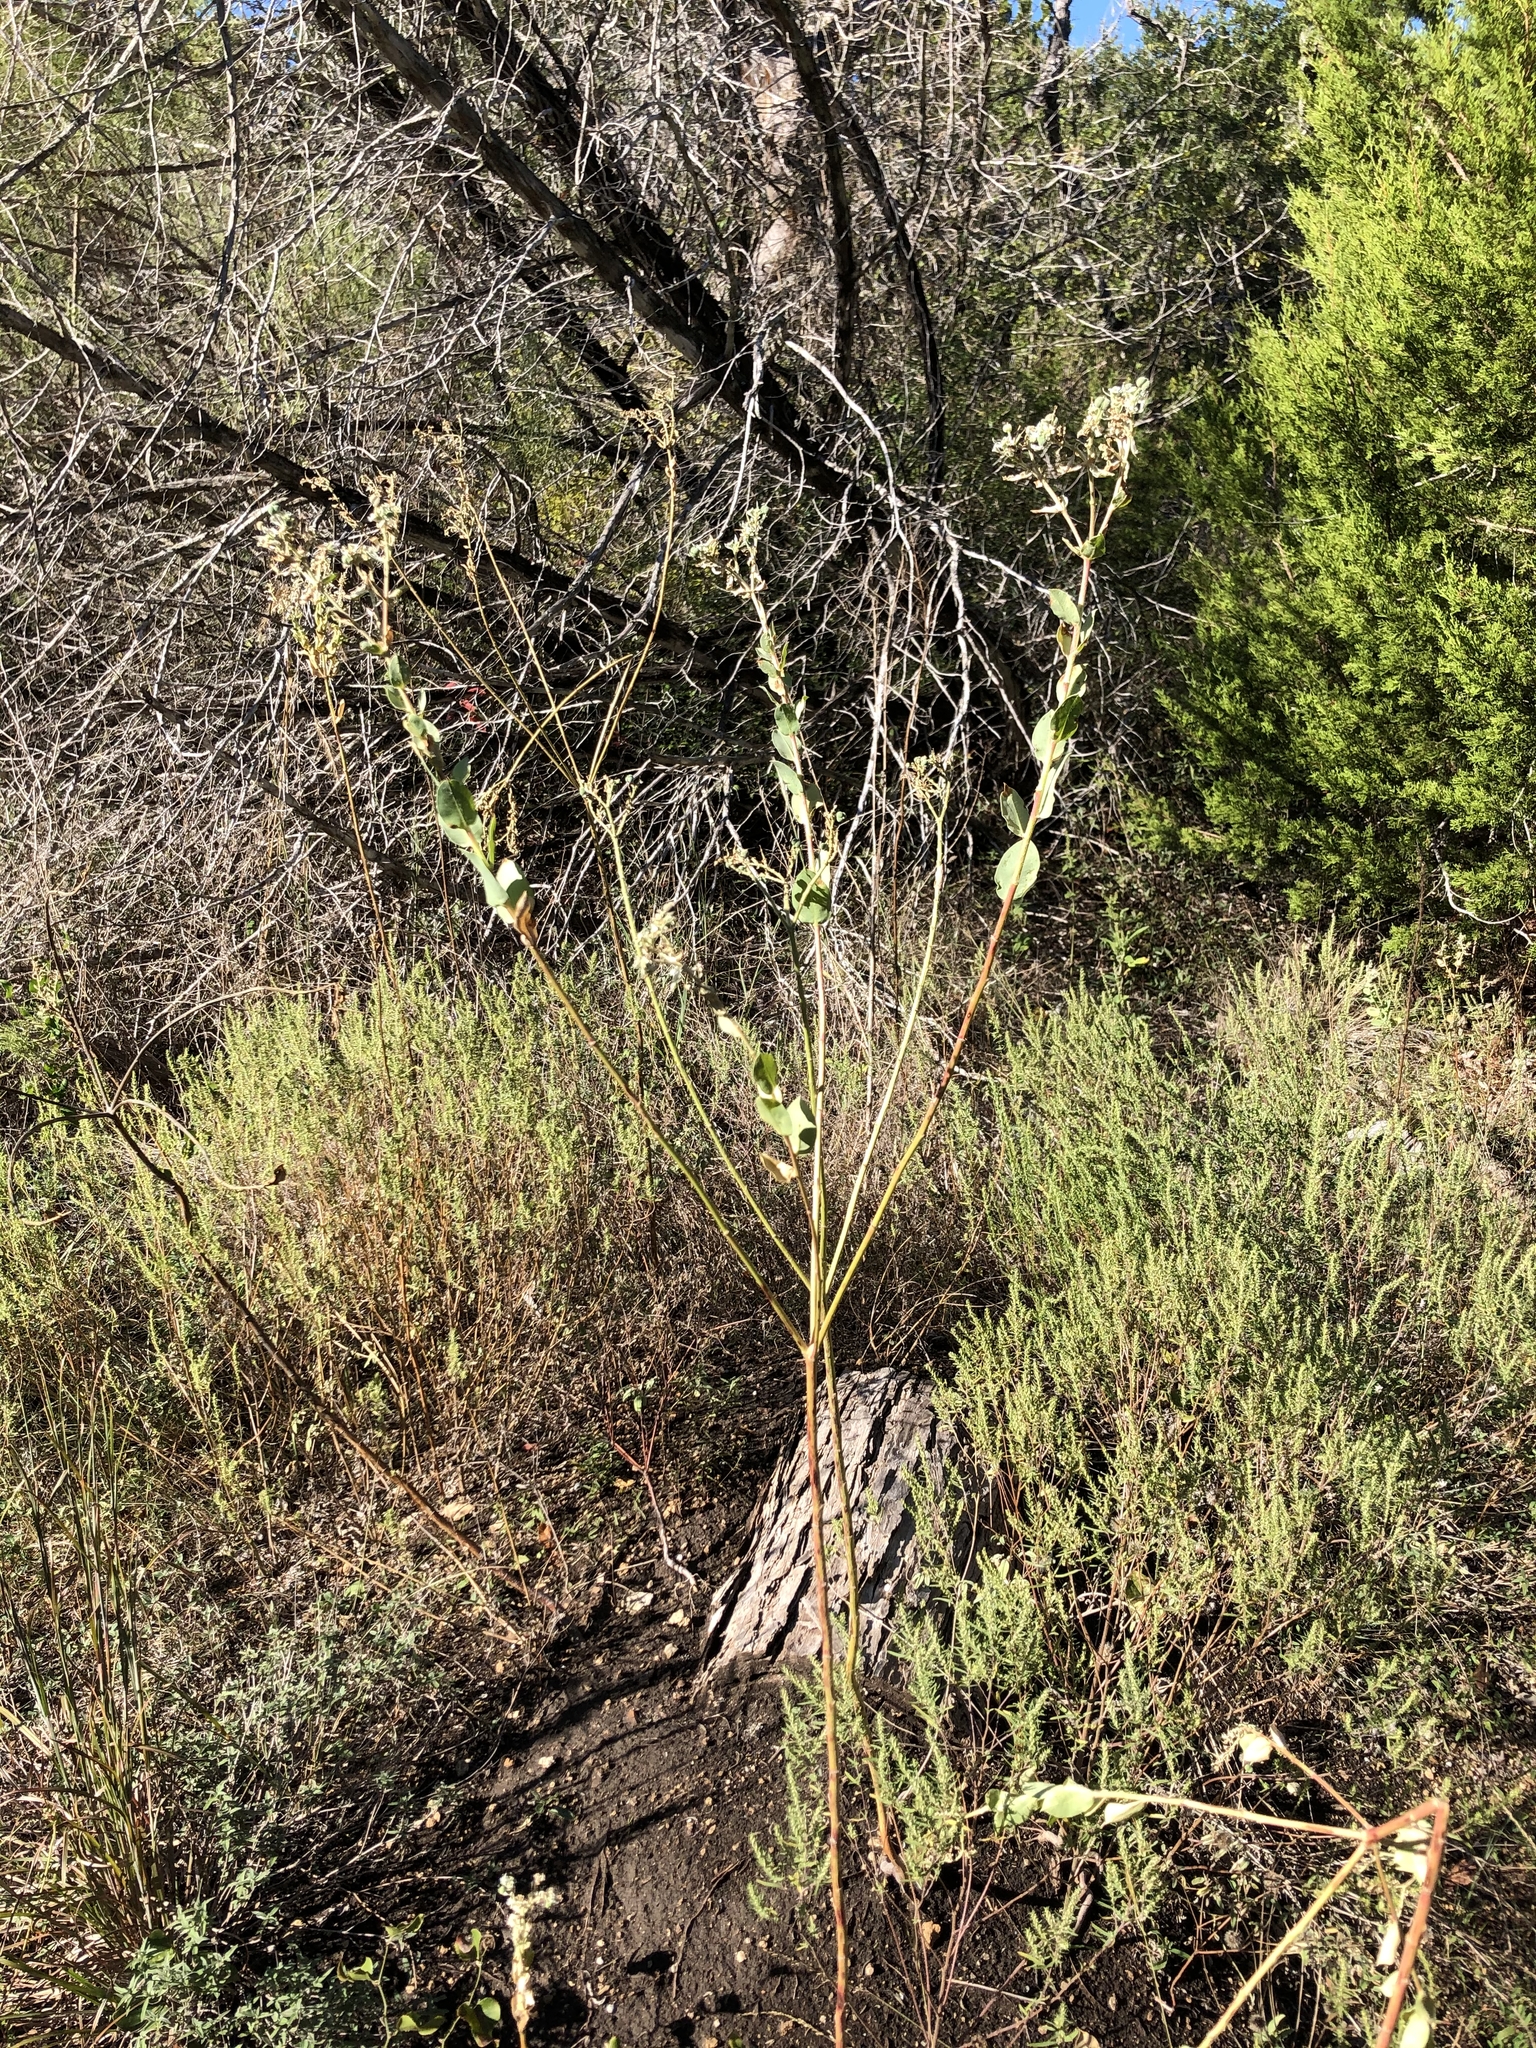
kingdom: Plantae
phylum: Tracheophyta
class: Magnoliopsida
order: Malpighiales
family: Euphorbiaceae
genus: Euphorbia
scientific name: Euphorbia marginata
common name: Ghostweed
